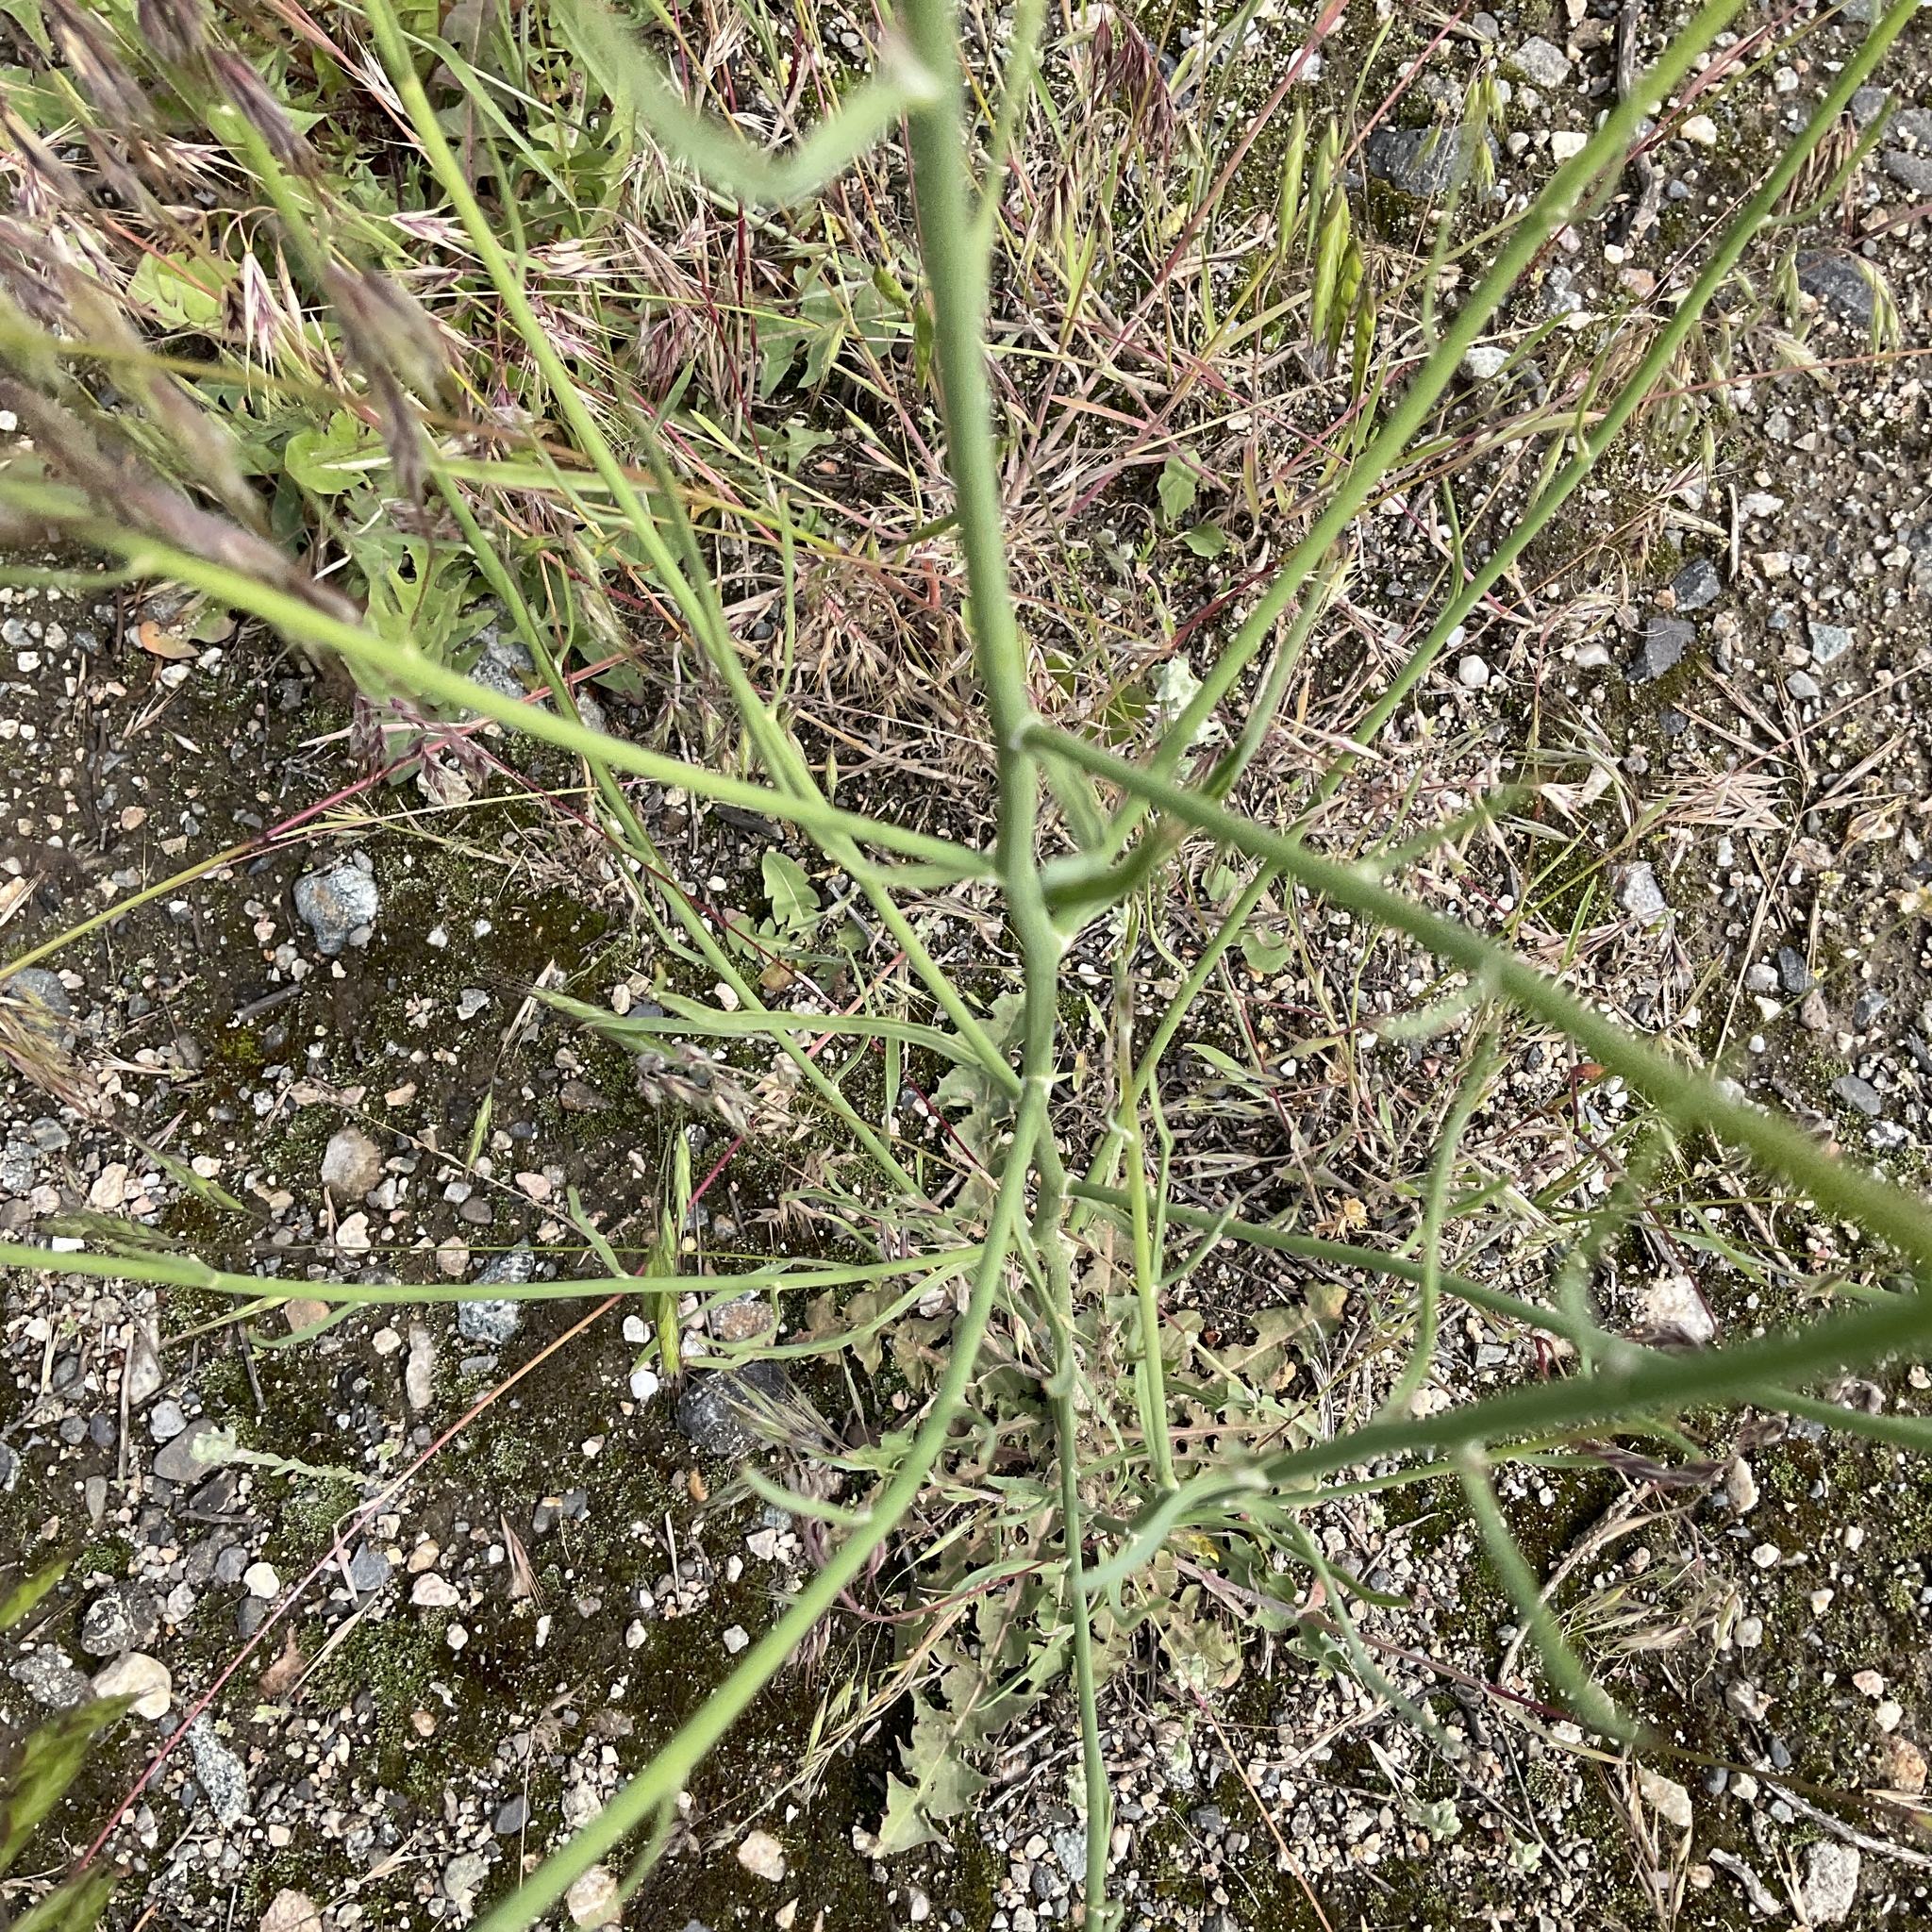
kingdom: Plantae
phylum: Tracheophyta
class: Magnoliopsida
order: Asterales
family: Asteraceae
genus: Chondrilla
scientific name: Chondrilla juncea
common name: Skeleton weed
